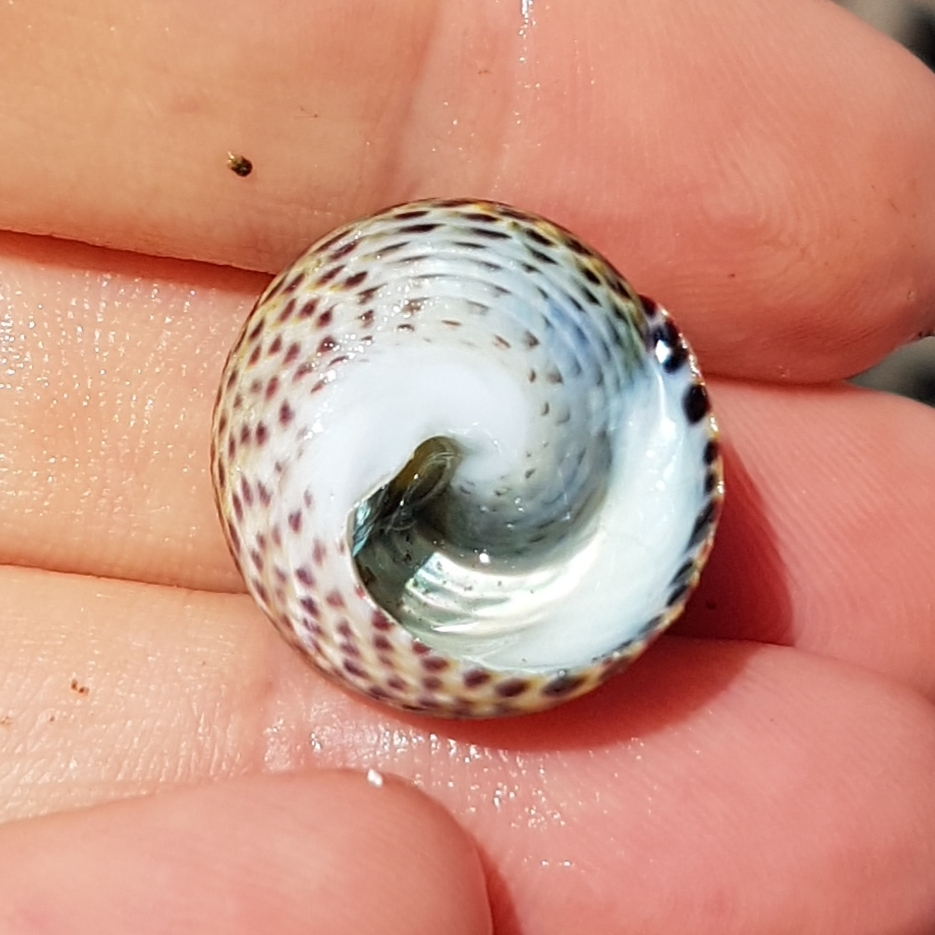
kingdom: Animalia
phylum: Mollusca
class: Gastropoda
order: Trochida
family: Trochidae
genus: Phorcus
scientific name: Phorcus turbinatus
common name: Turbinate monodont
